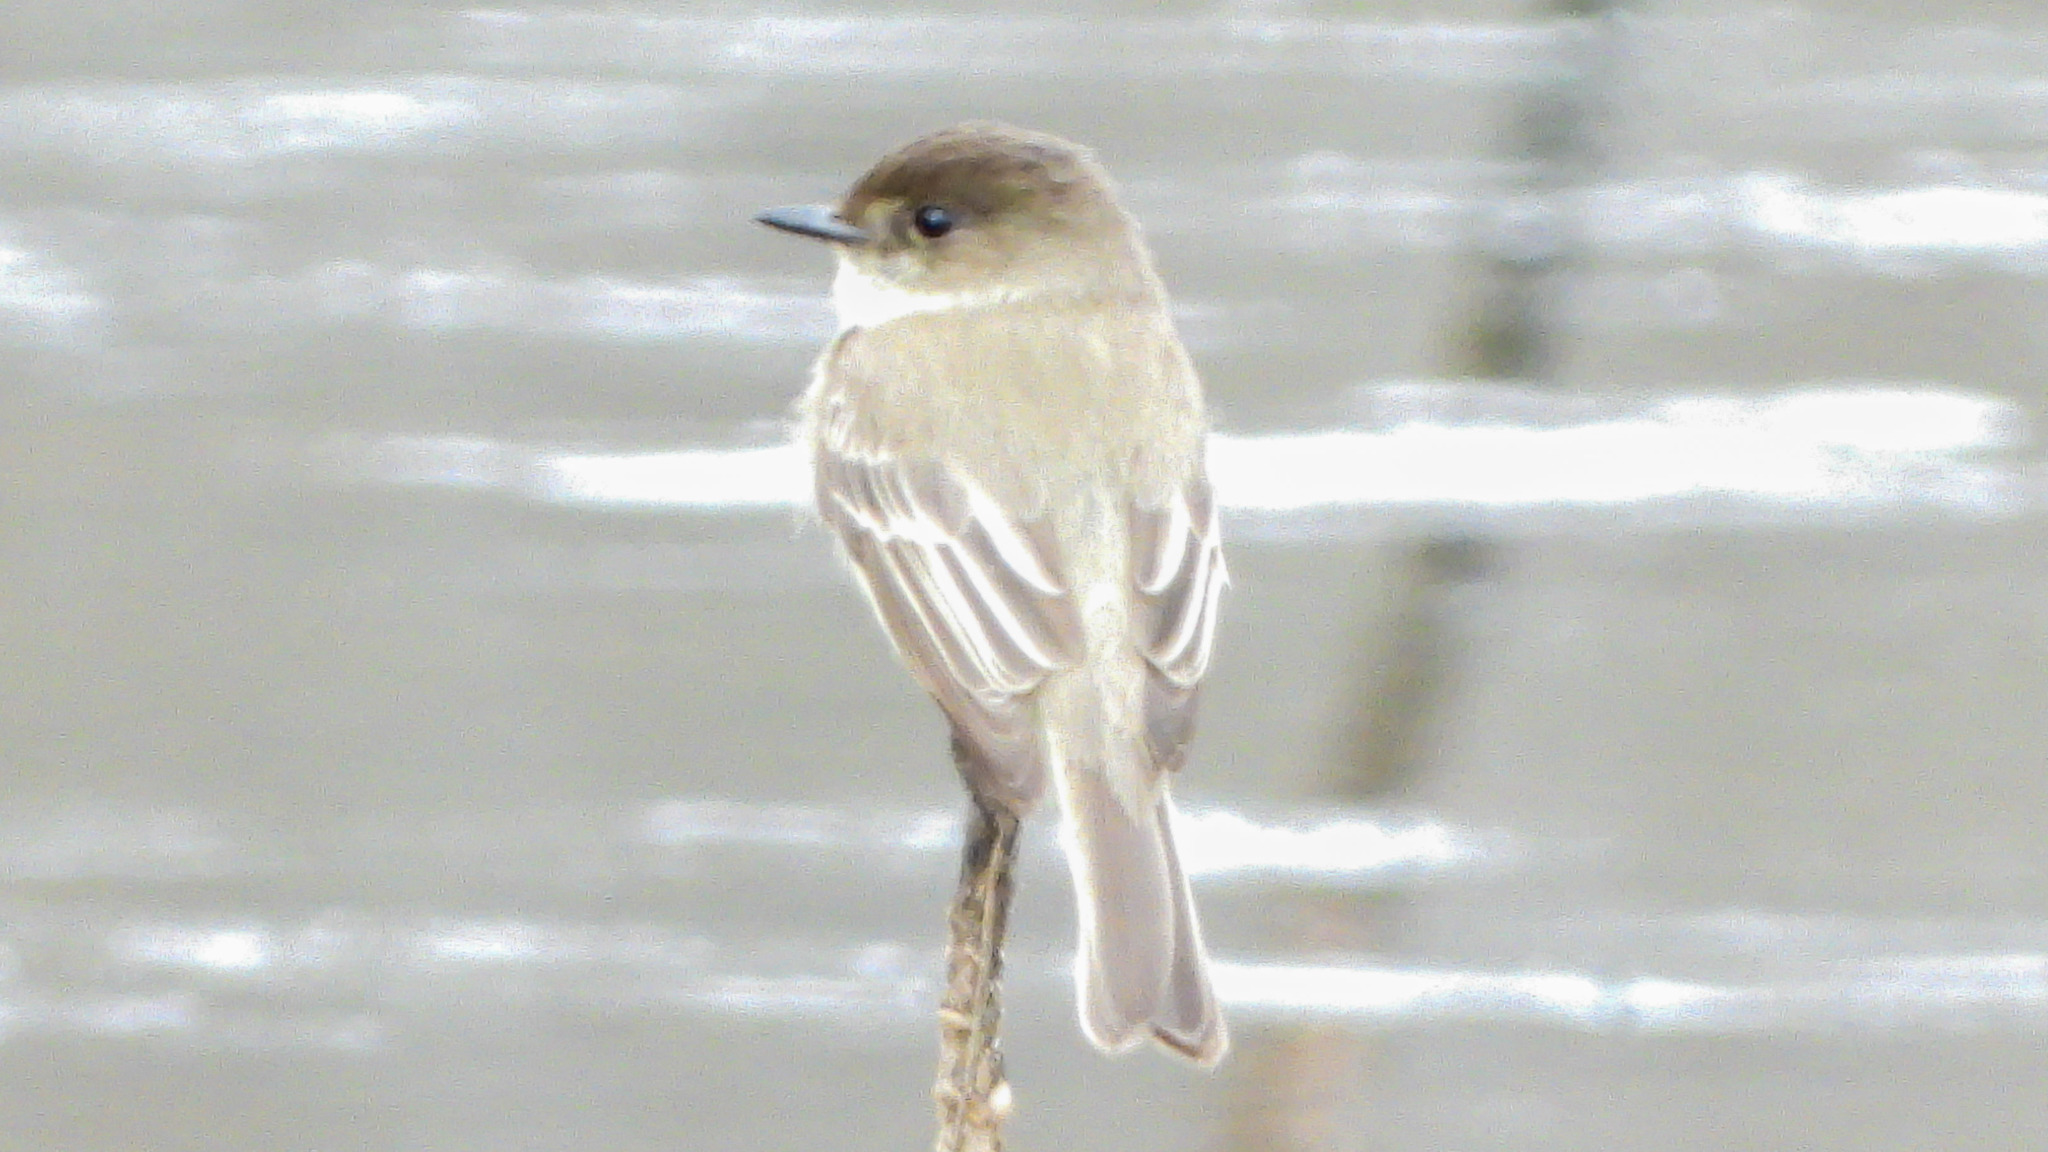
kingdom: Animalia
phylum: Chordata
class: Aves
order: Passeriformes
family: Tyrannidae
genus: Sayornis
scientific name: Sayornis phoebe
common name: Eastern phoebe
